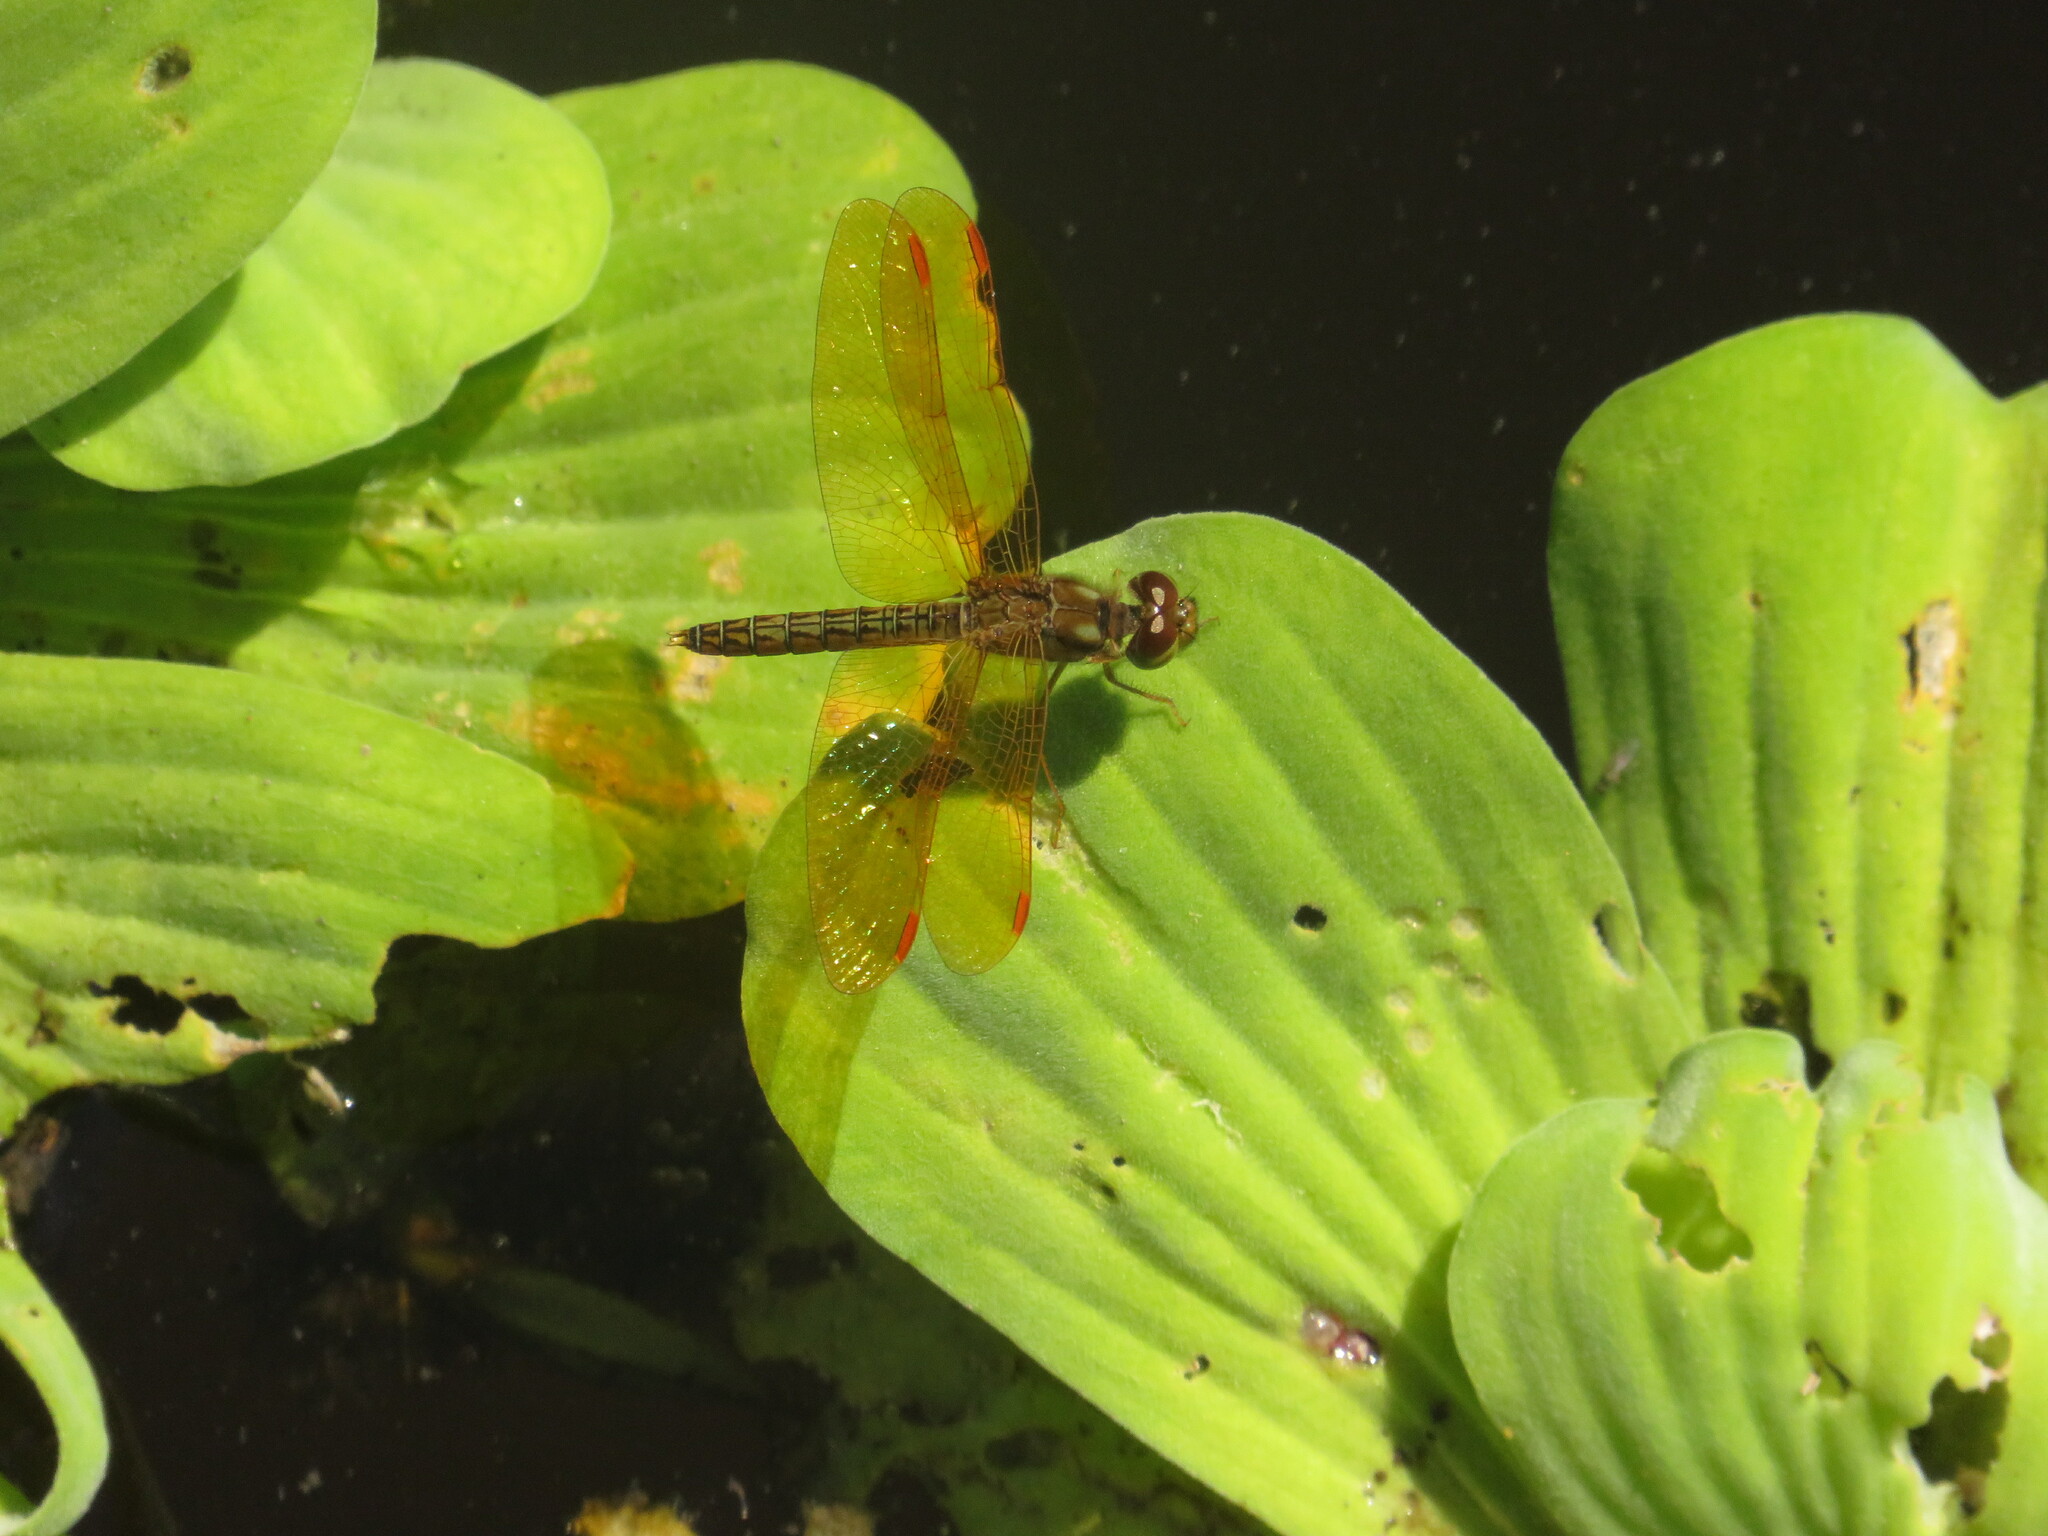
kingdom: Animalia
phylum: Arthropoda
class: Insecta
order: Odonata
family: Libellulidae
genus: Perithemis
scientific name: Perithemis tenera
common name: Eastern amberwing
